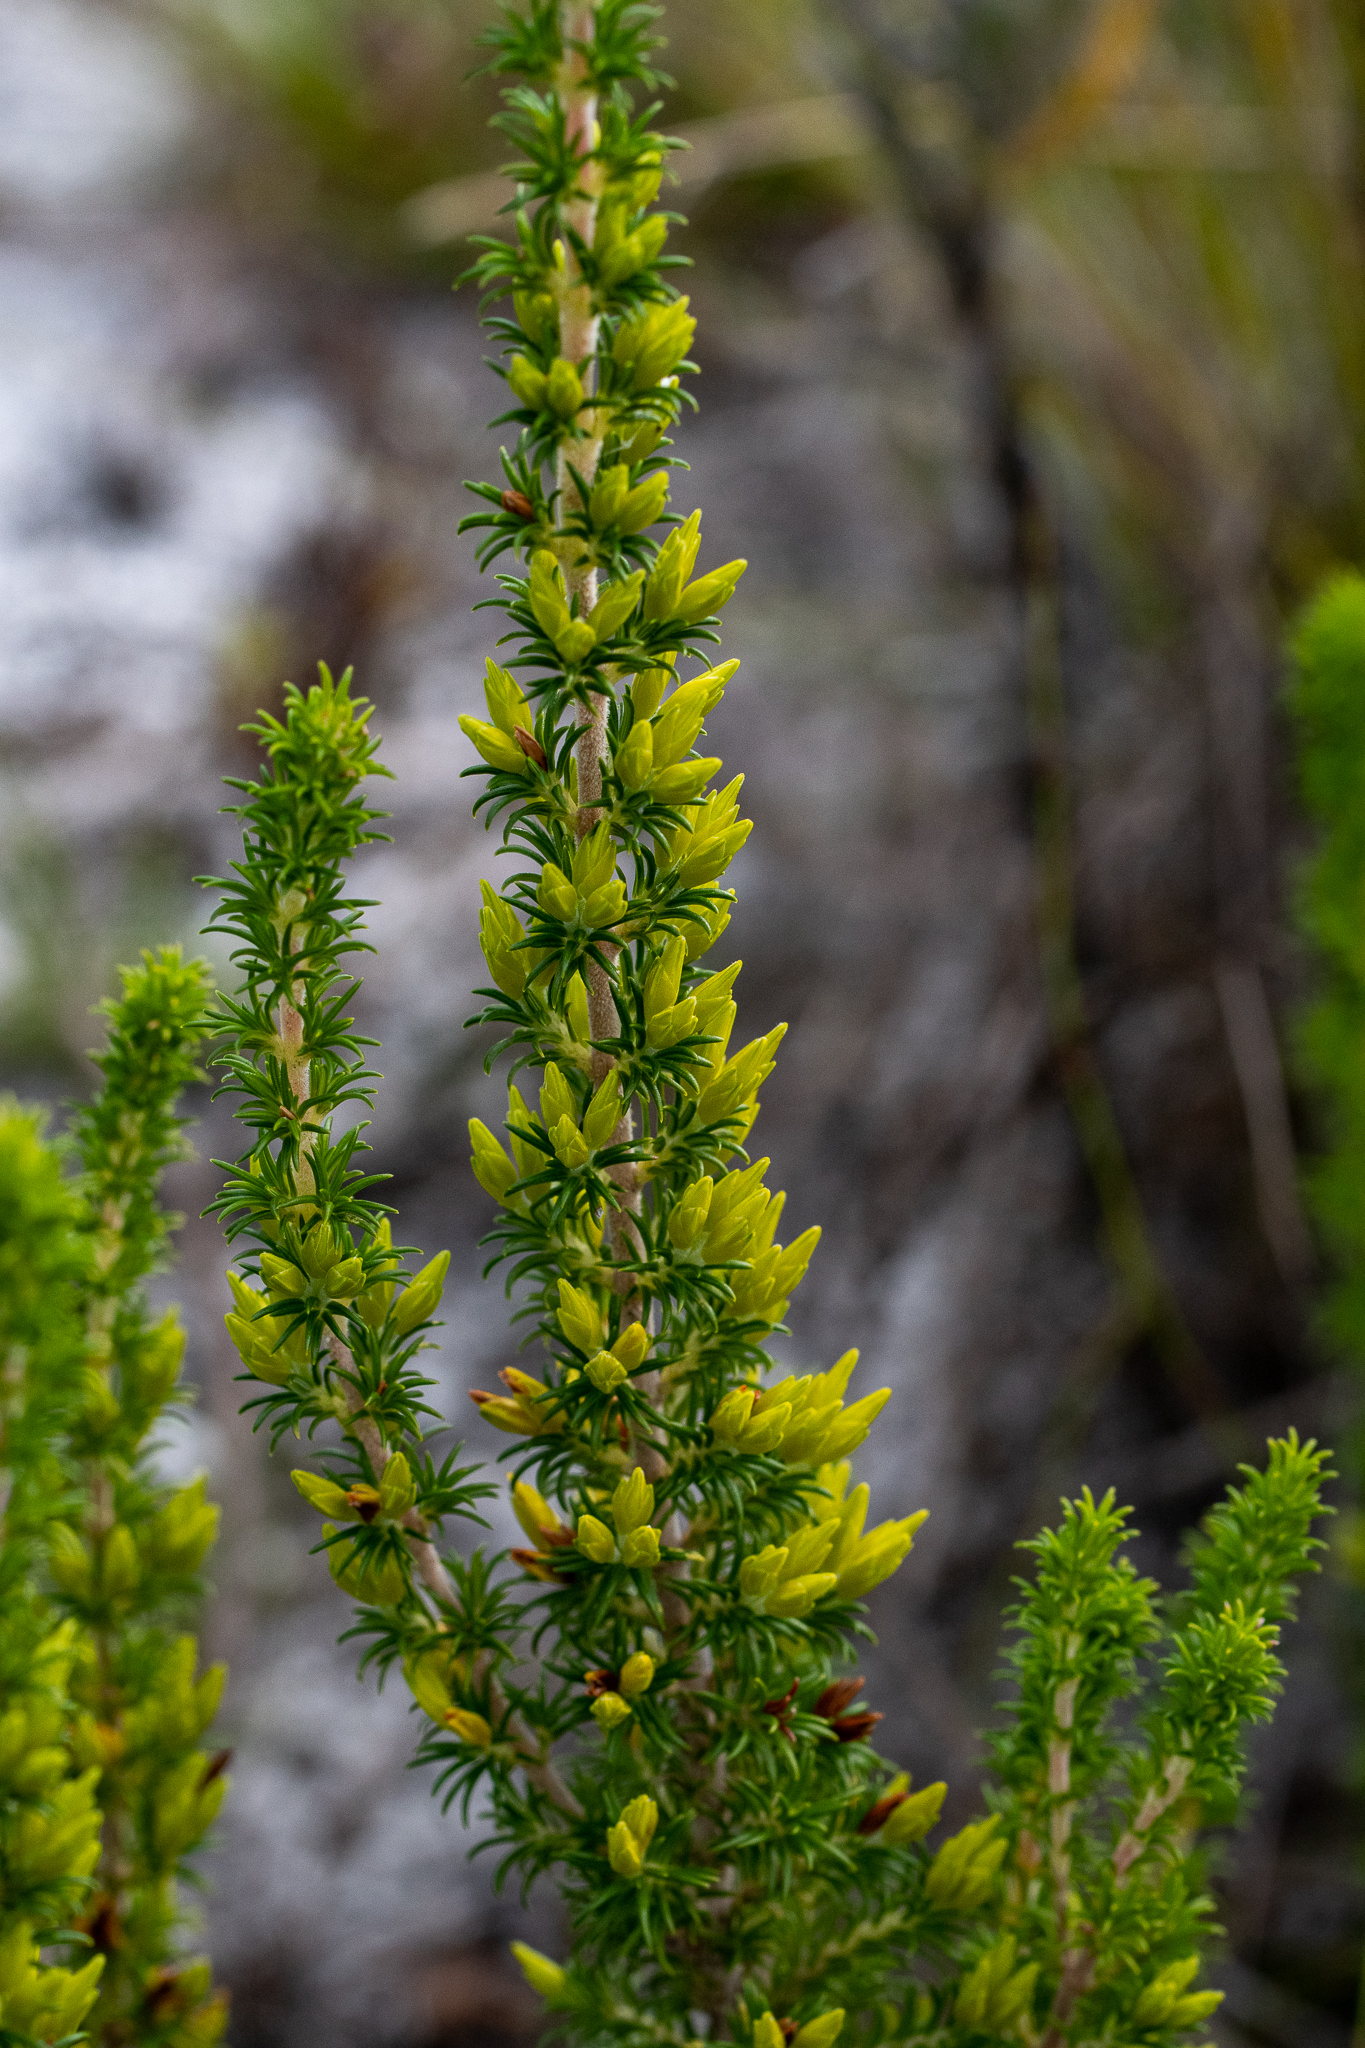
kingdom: Plantae
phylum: Tracheophyta
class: Magnoliopsida
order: Ericales
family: Ericaceae
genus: Erica
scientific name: Erica coccinea
